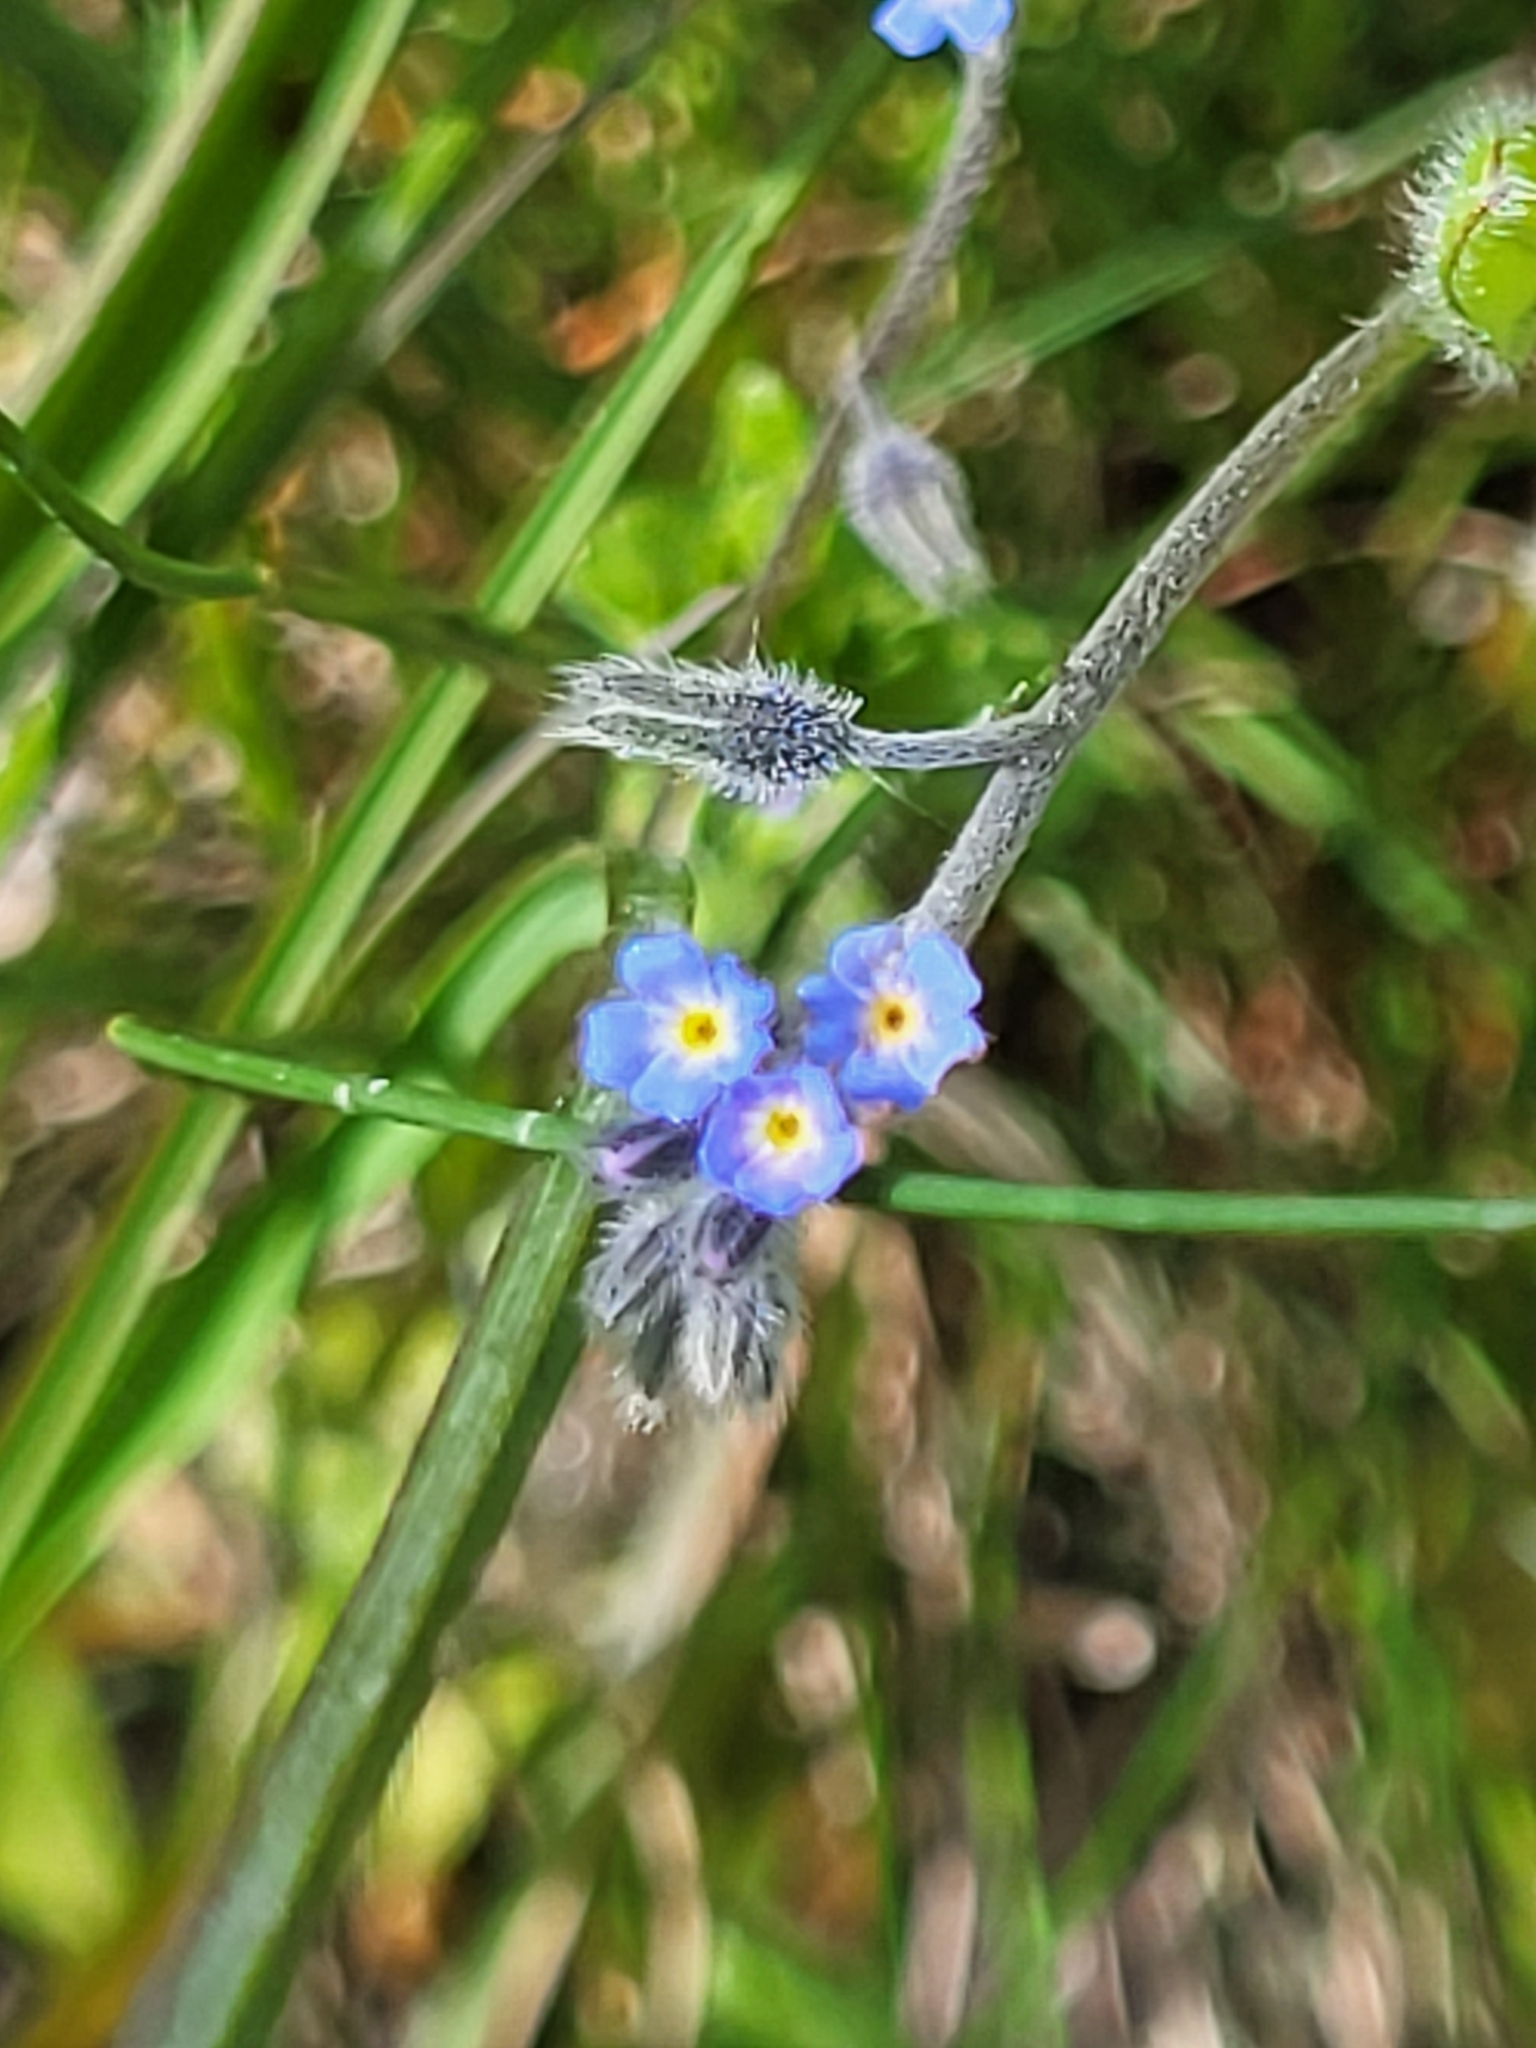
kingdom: Plantae
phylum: Tracheophyta
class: Magnoliopsida
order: Boraginales
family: Boraginaceae
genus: Myosotis
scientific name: Myosotis ramosissima
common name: Early forget-me-not
